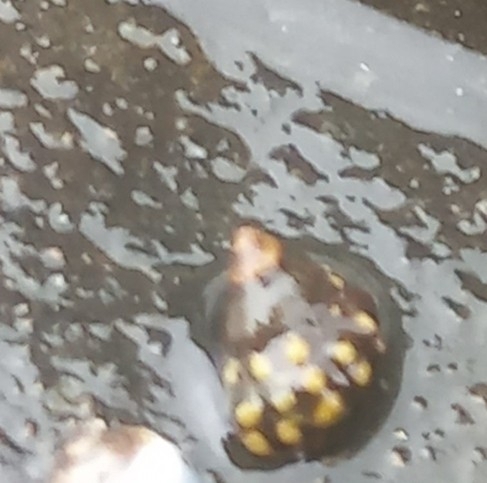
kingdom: Animalia
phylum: Mollusca
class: Gastropoda
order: Littorinimorpha
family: Littorinidae
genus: Echinolittorina
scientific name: Echinolittorina natalensis
